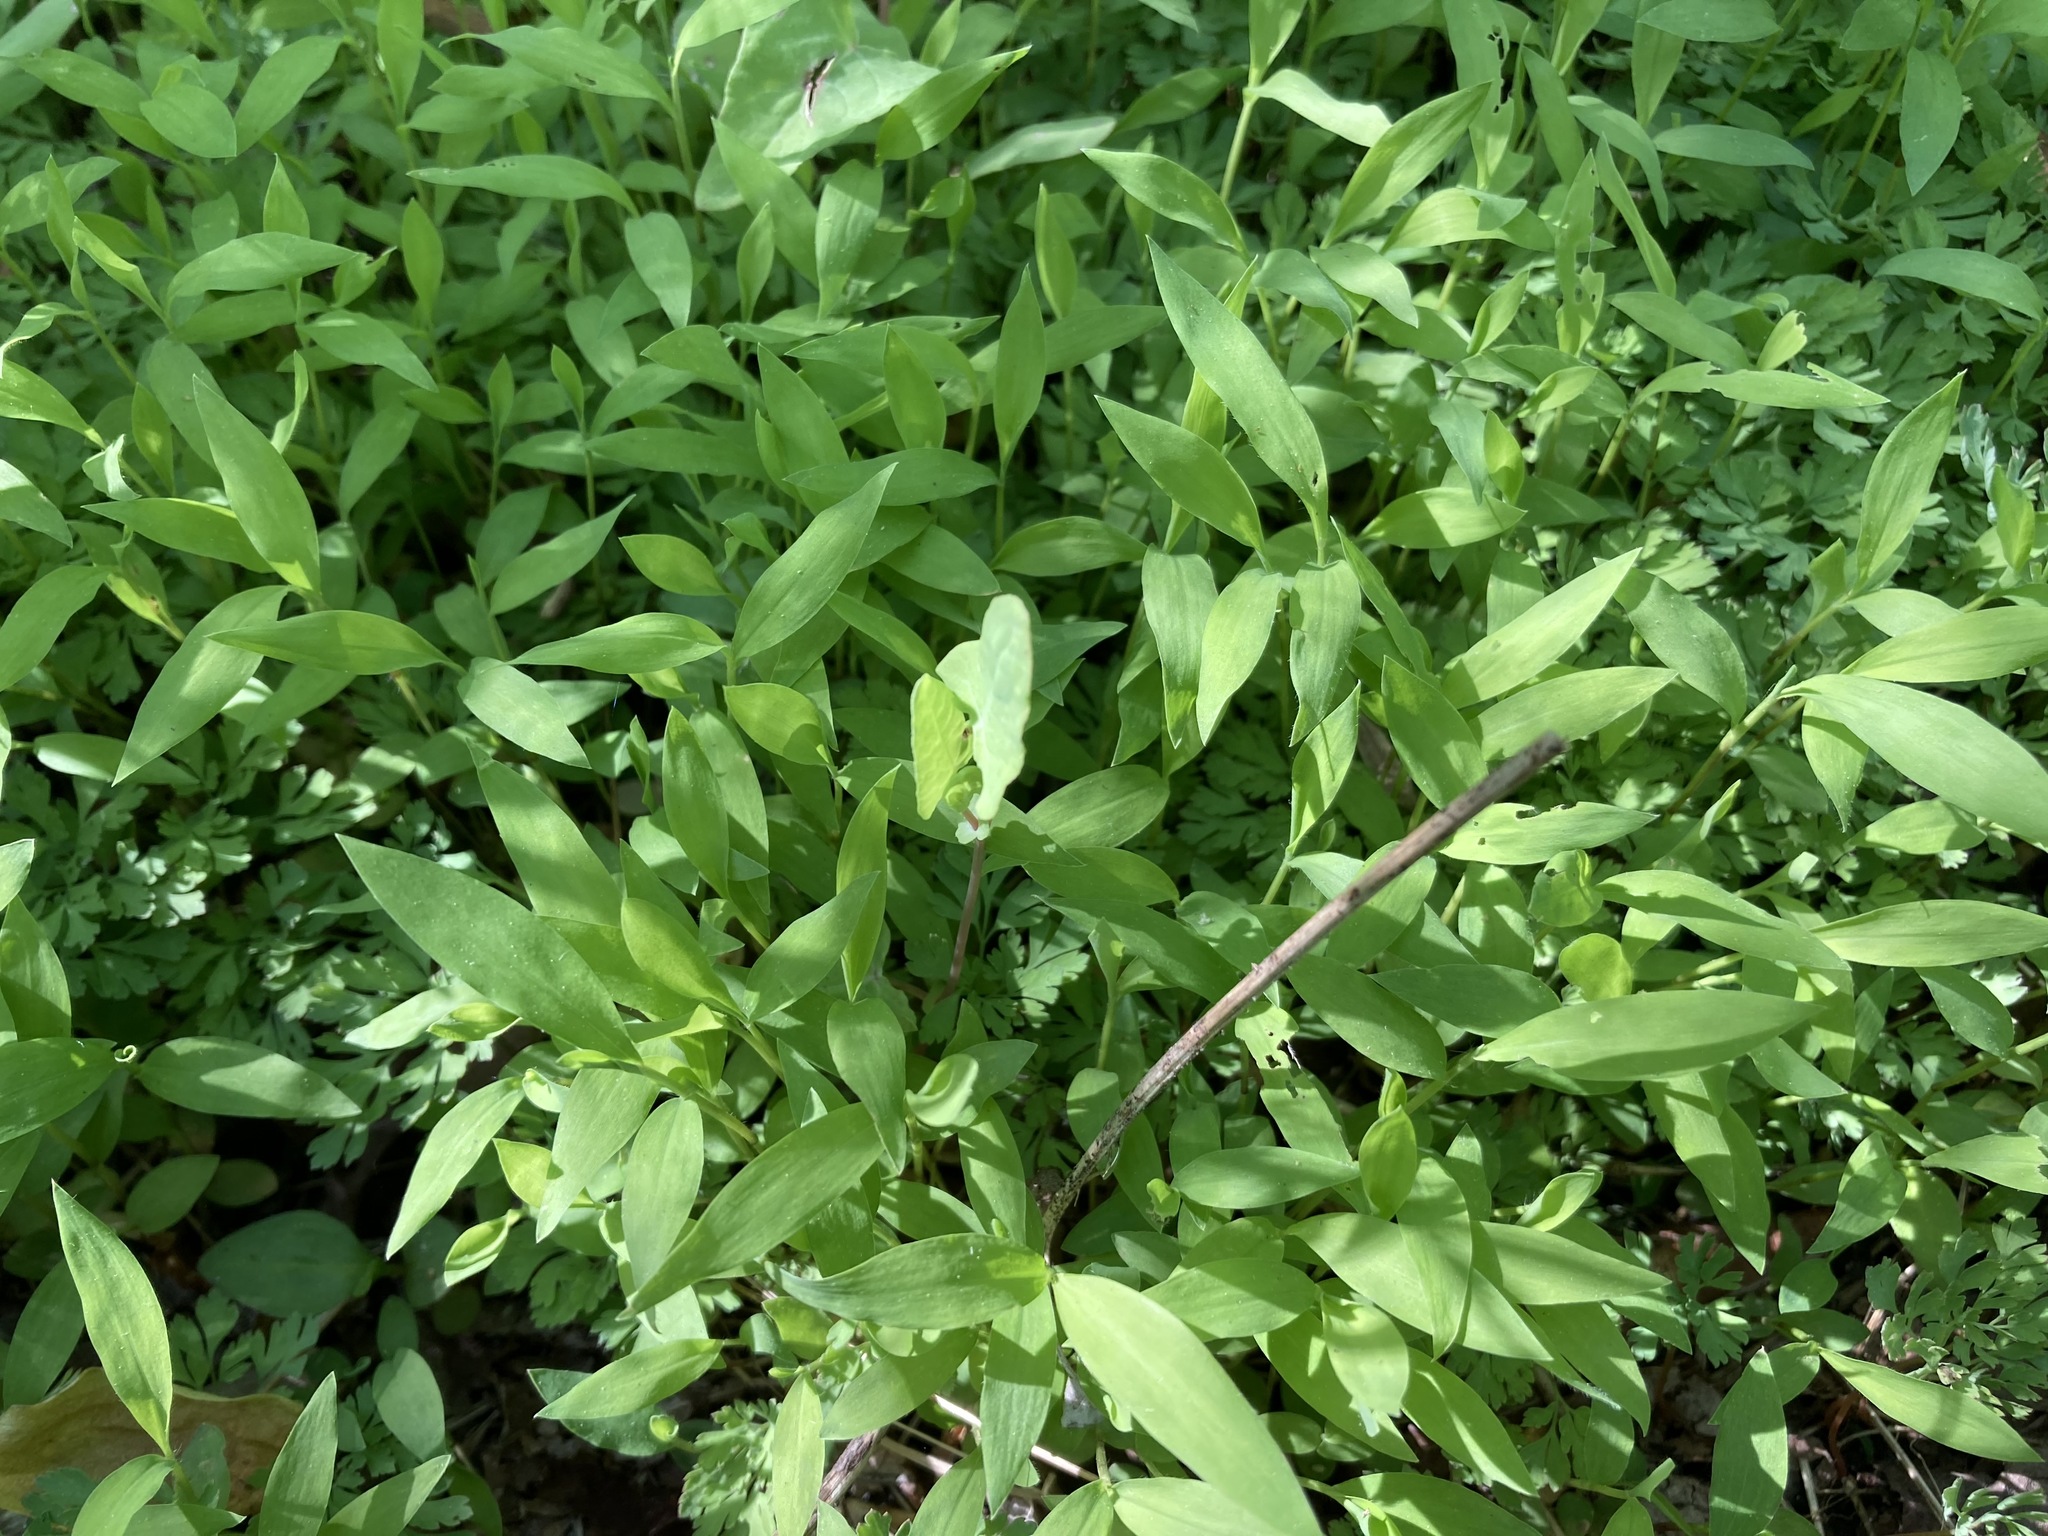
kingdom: Plantae
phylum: Tracheophyta
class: Liliopsida
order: Poales
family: Poaceae
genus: Microstegium
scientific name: Microstegium vimineum
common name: Japanese stiltgrass
